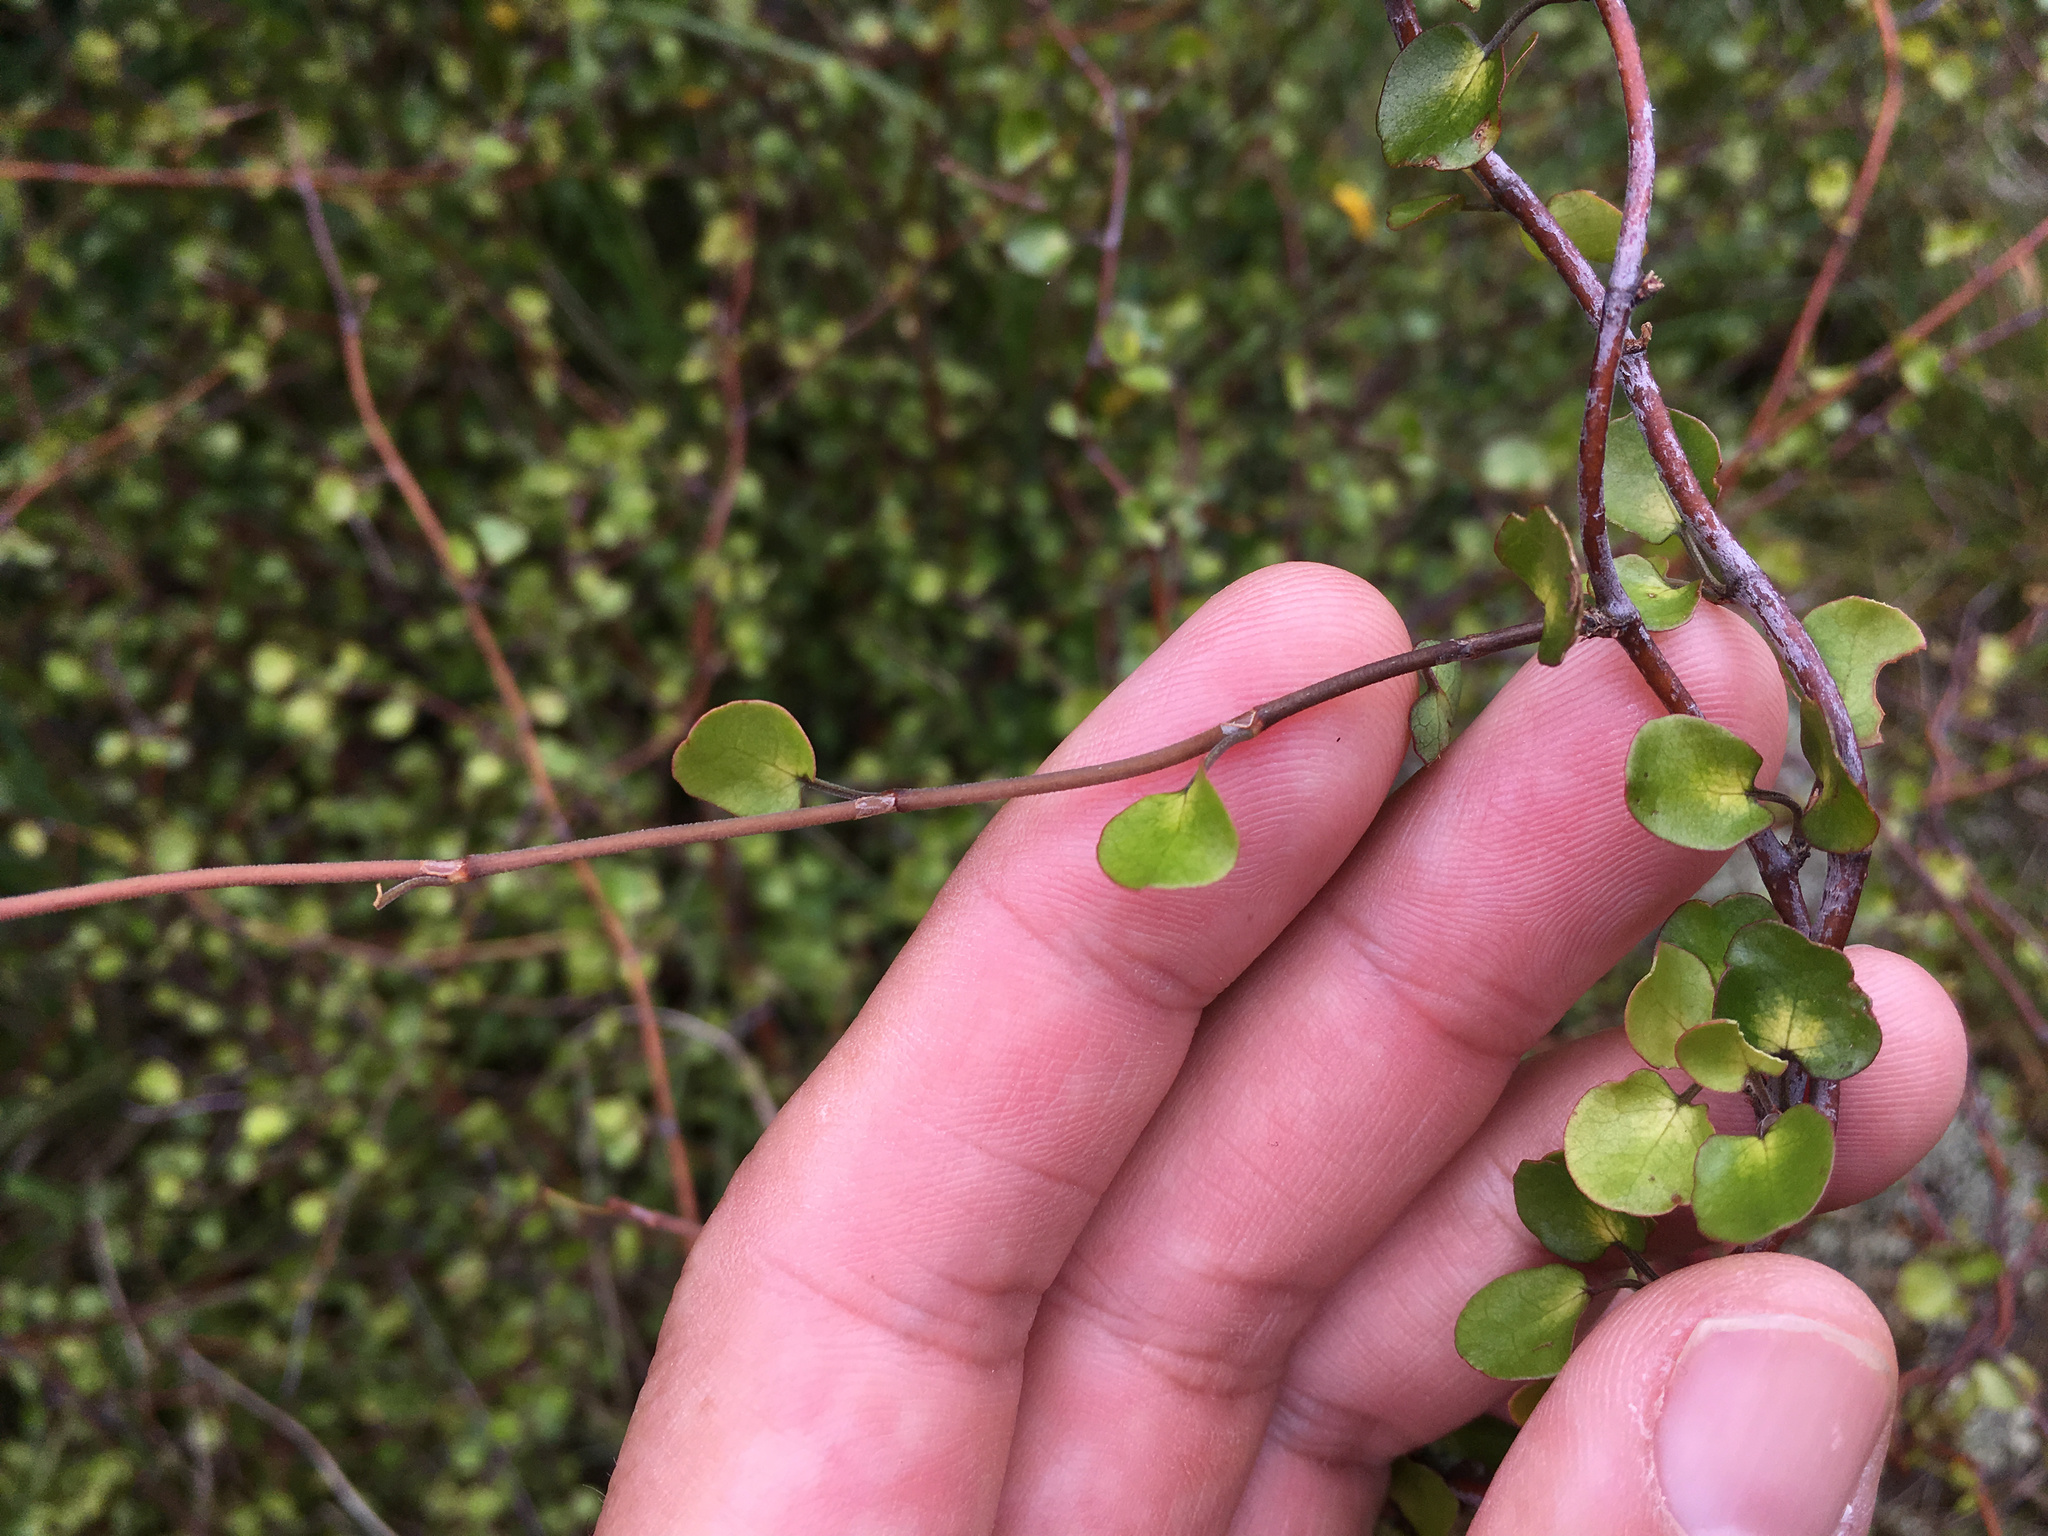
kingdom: Plantae
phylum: Tracheophyta
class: Magnoliopsida
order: Caryophyllales
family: Polygonaceae
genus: Muehlenbeckia
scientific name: Muehlenbeckia complexa
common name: Wireplant
